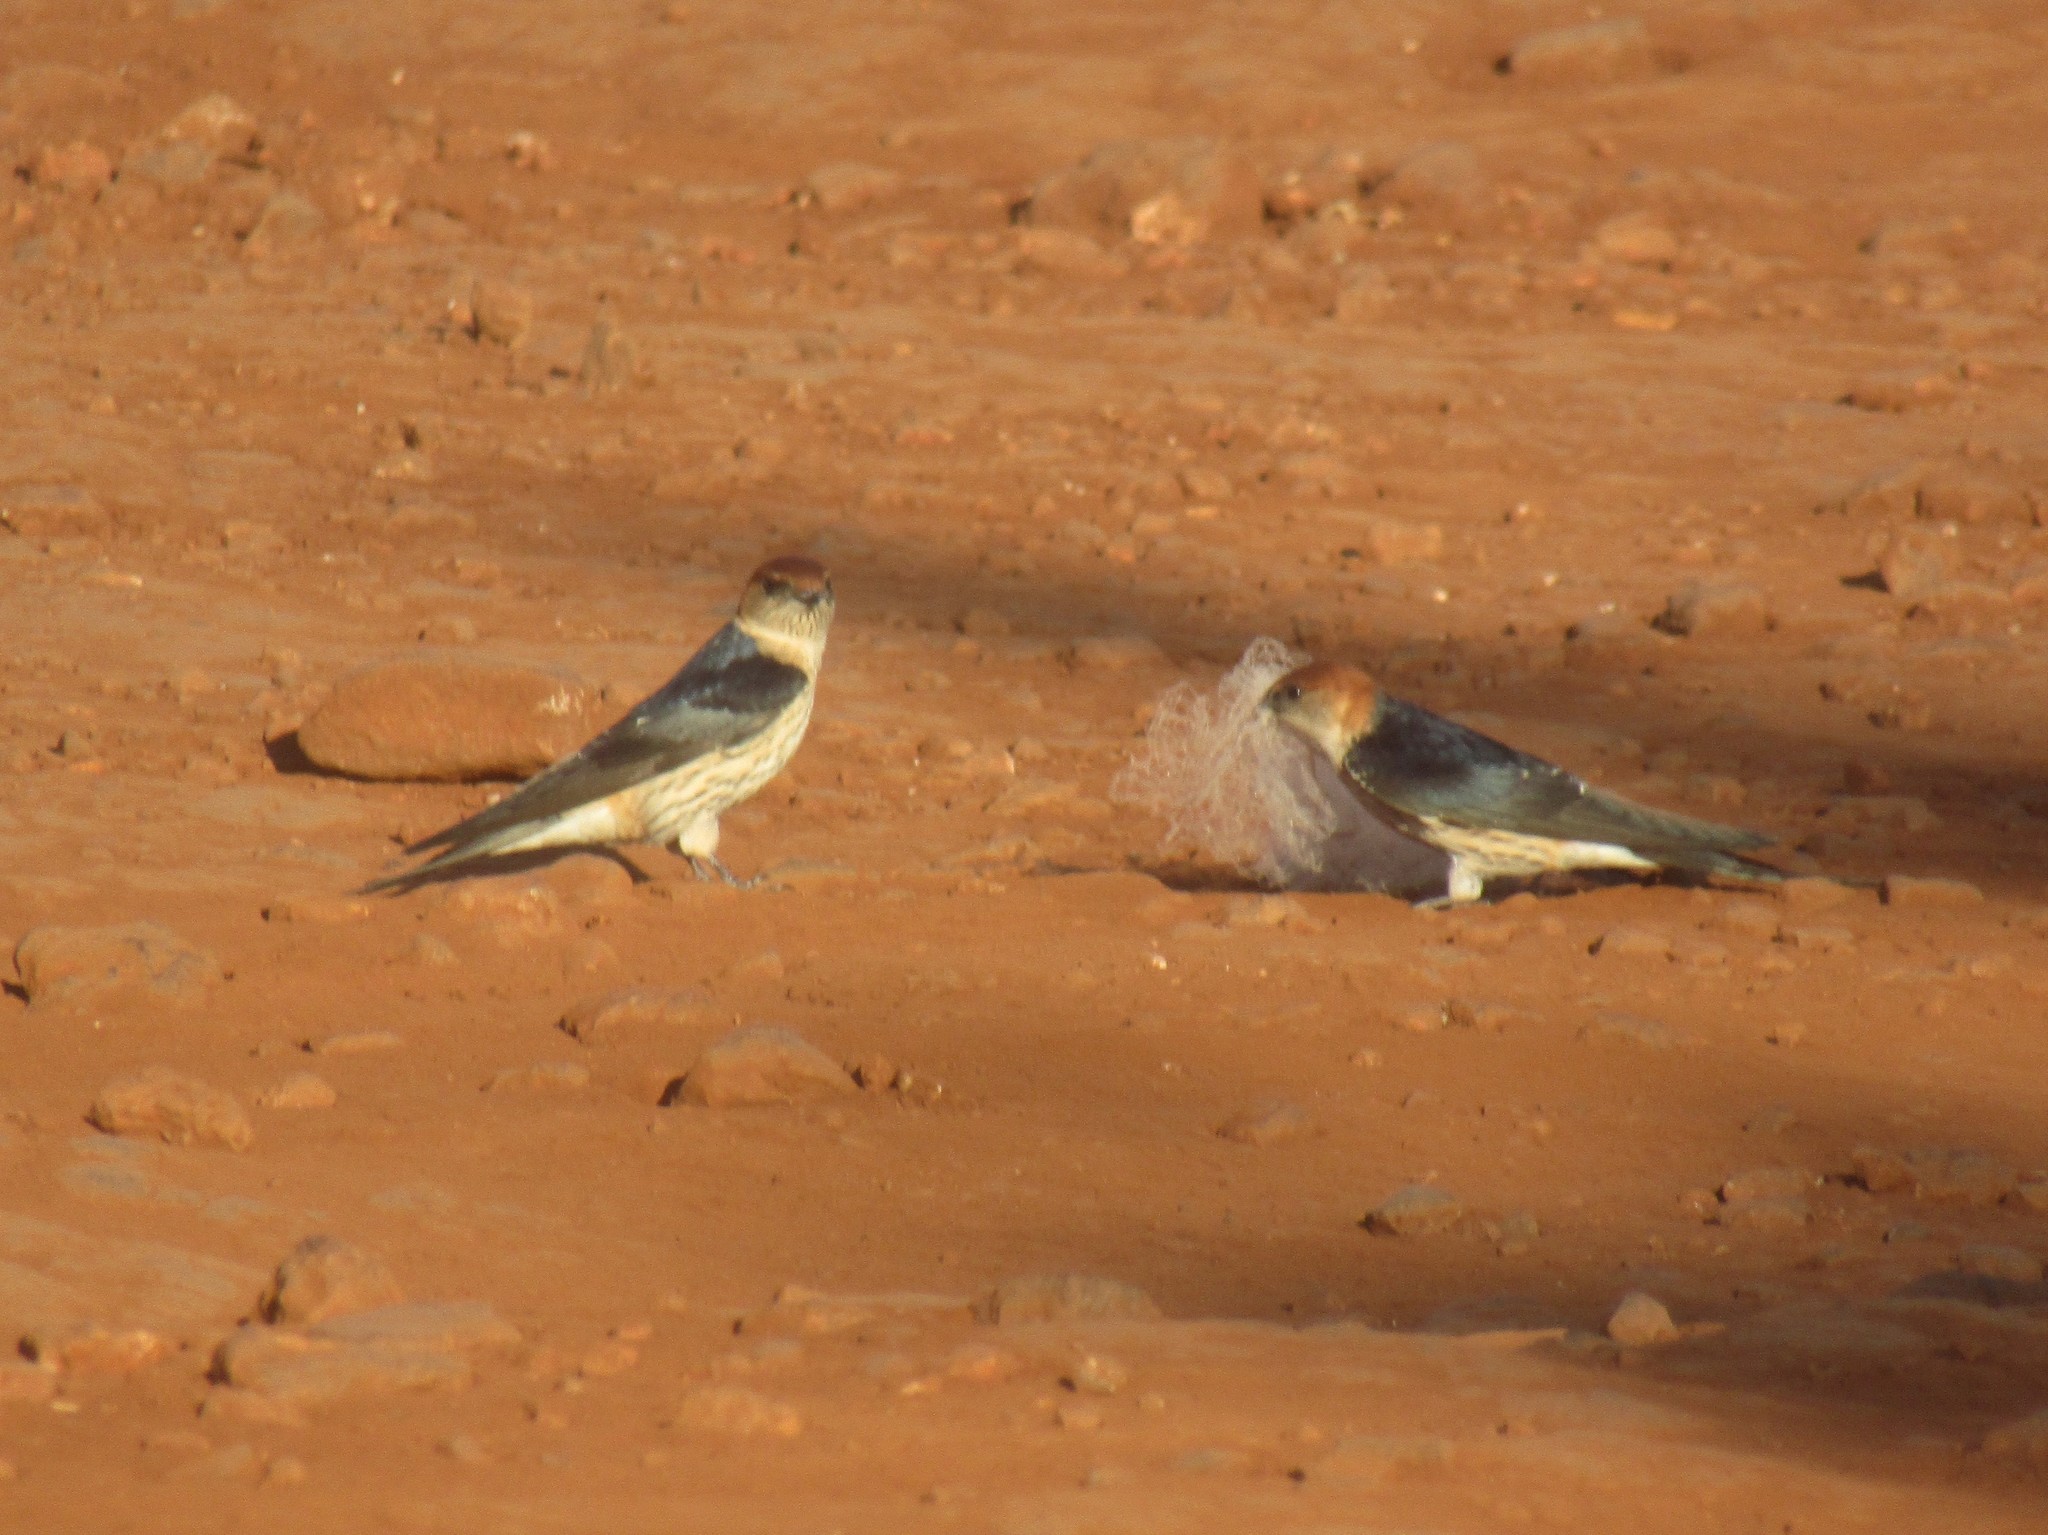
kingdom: Animalia
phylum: Chordata
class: Aves
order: Passeriformes
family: Hirundinidae
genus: Cecropis
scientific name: Cecropis cucullata
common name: Greater striped-swallow
